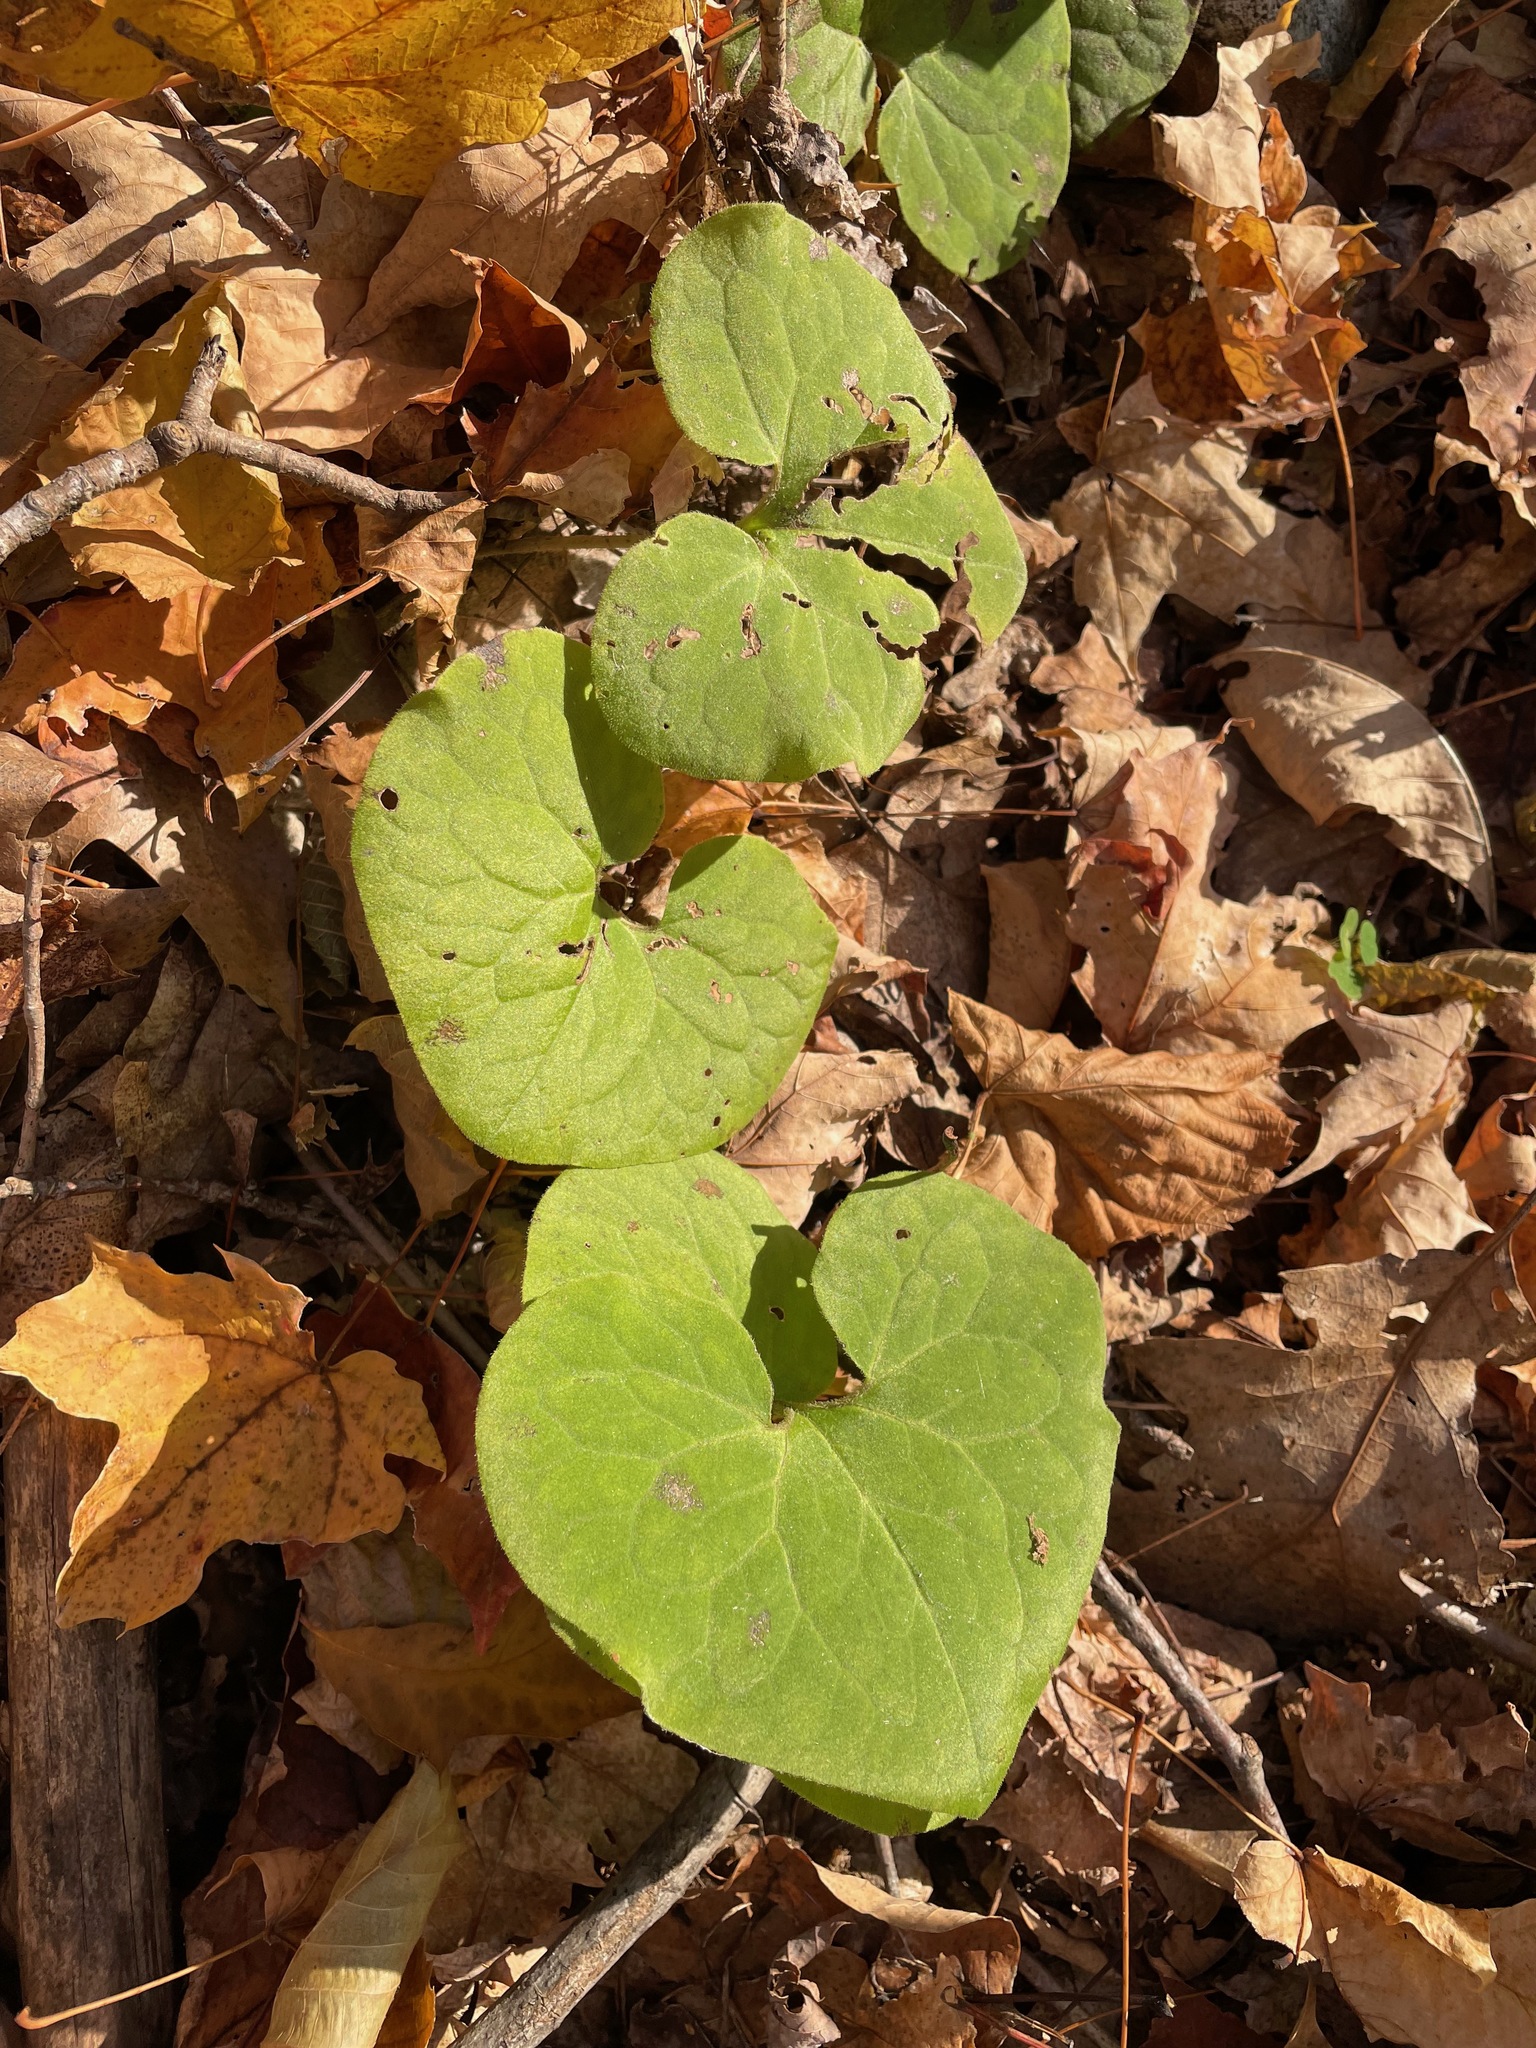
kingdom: Plantae
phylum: Tracheophyta
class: Magnoliopsida
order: Piperales
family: Aristolochiaceae
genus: Asarum
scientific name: Asarum canadense
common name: Wild ginger
